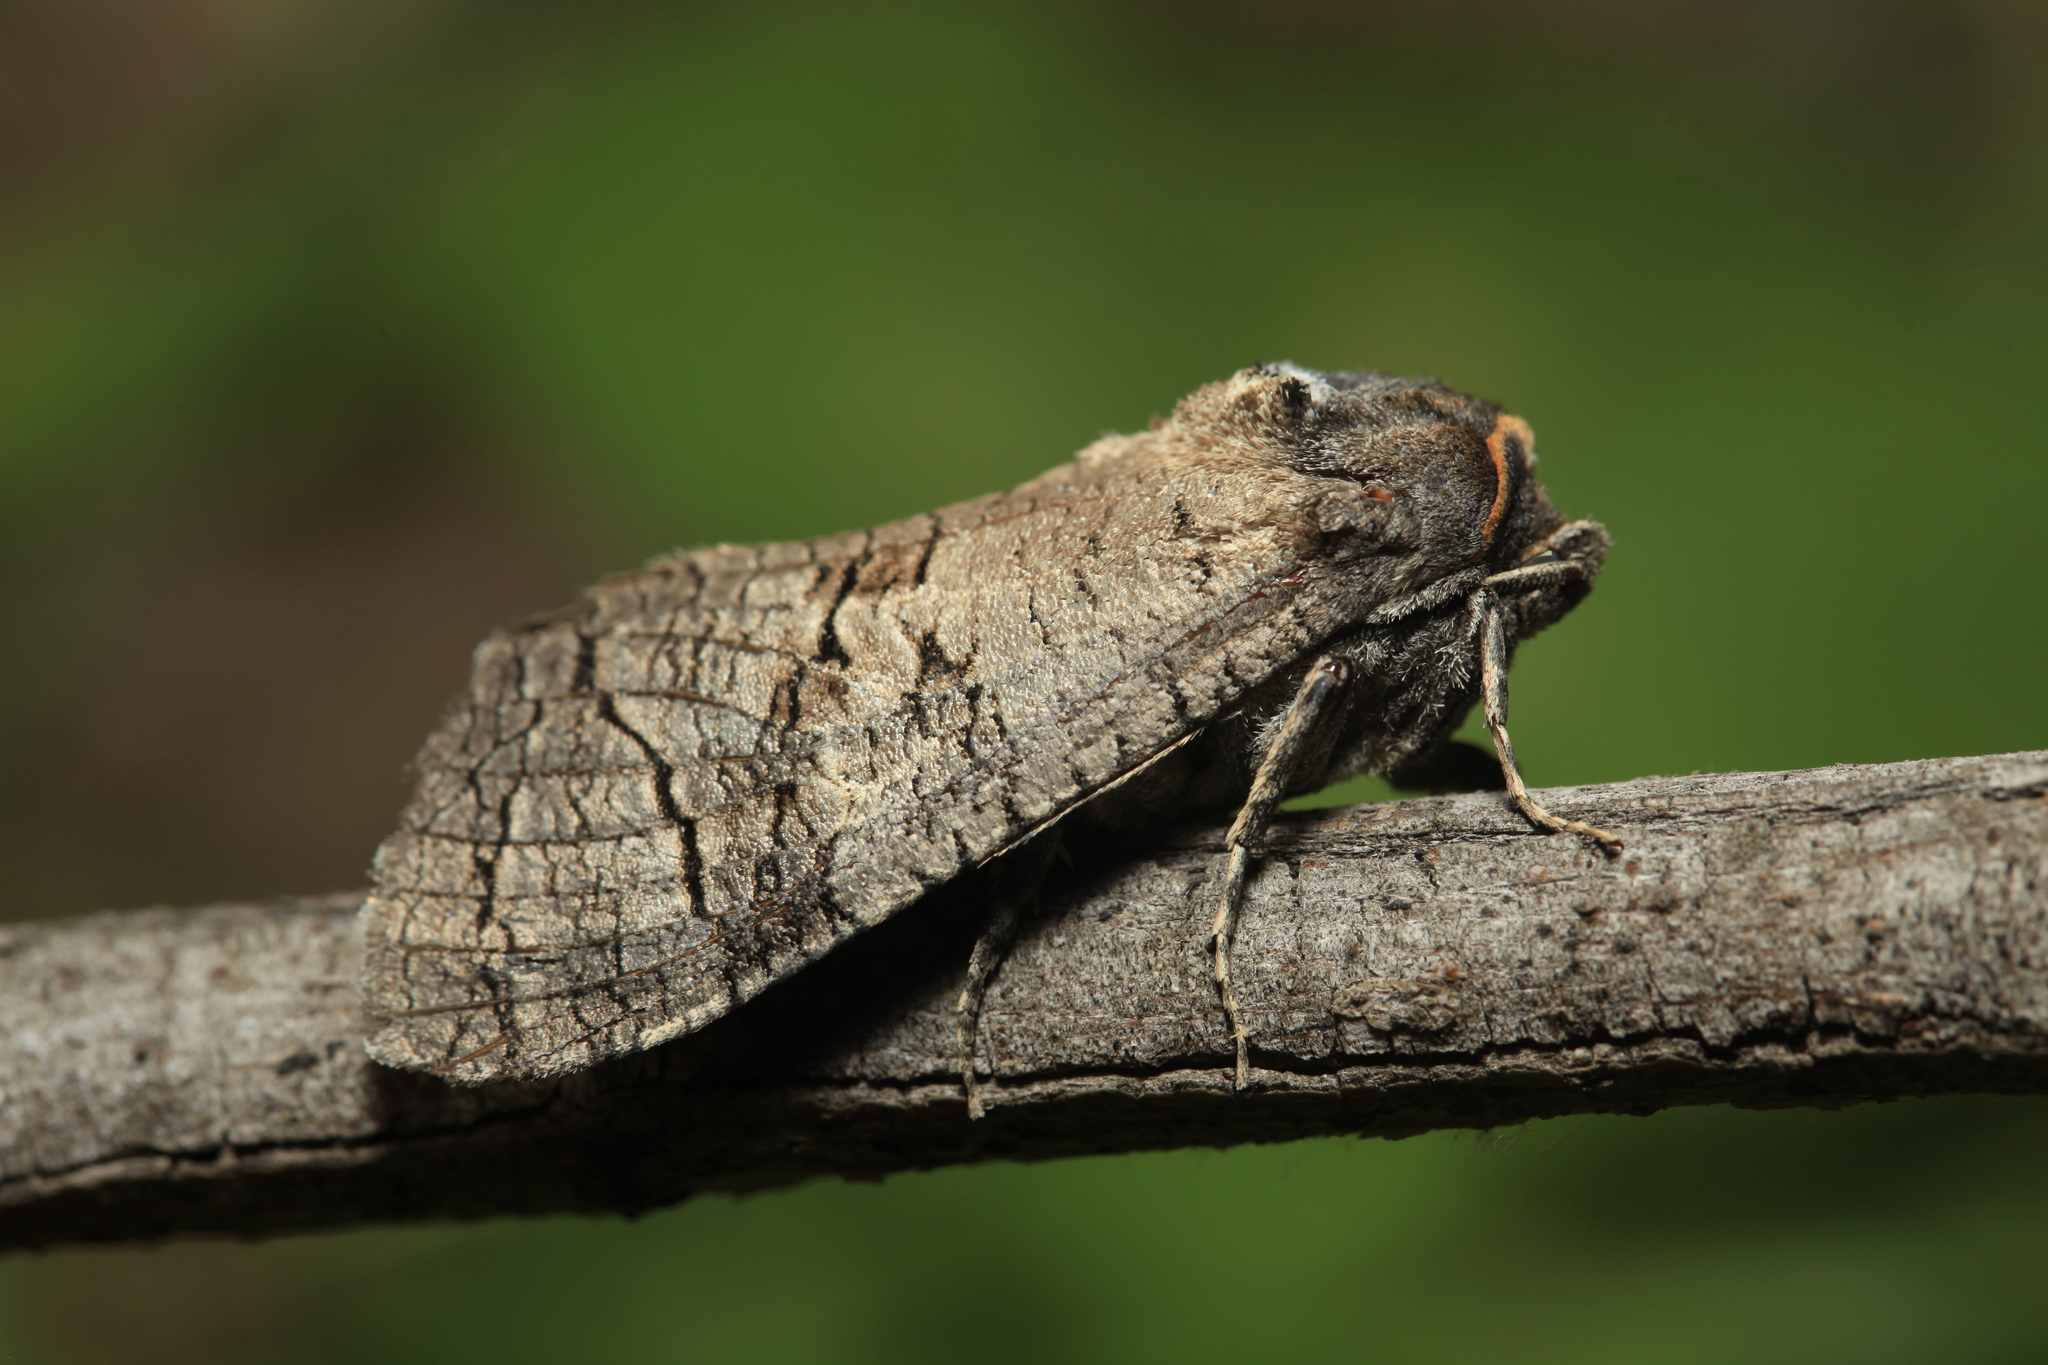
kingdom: Animalia
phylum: Arthropoda
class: Insecta
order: Lepidoptera
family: Cossidae
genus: Cossus
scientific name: Cossus cossus
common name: Goat moth
